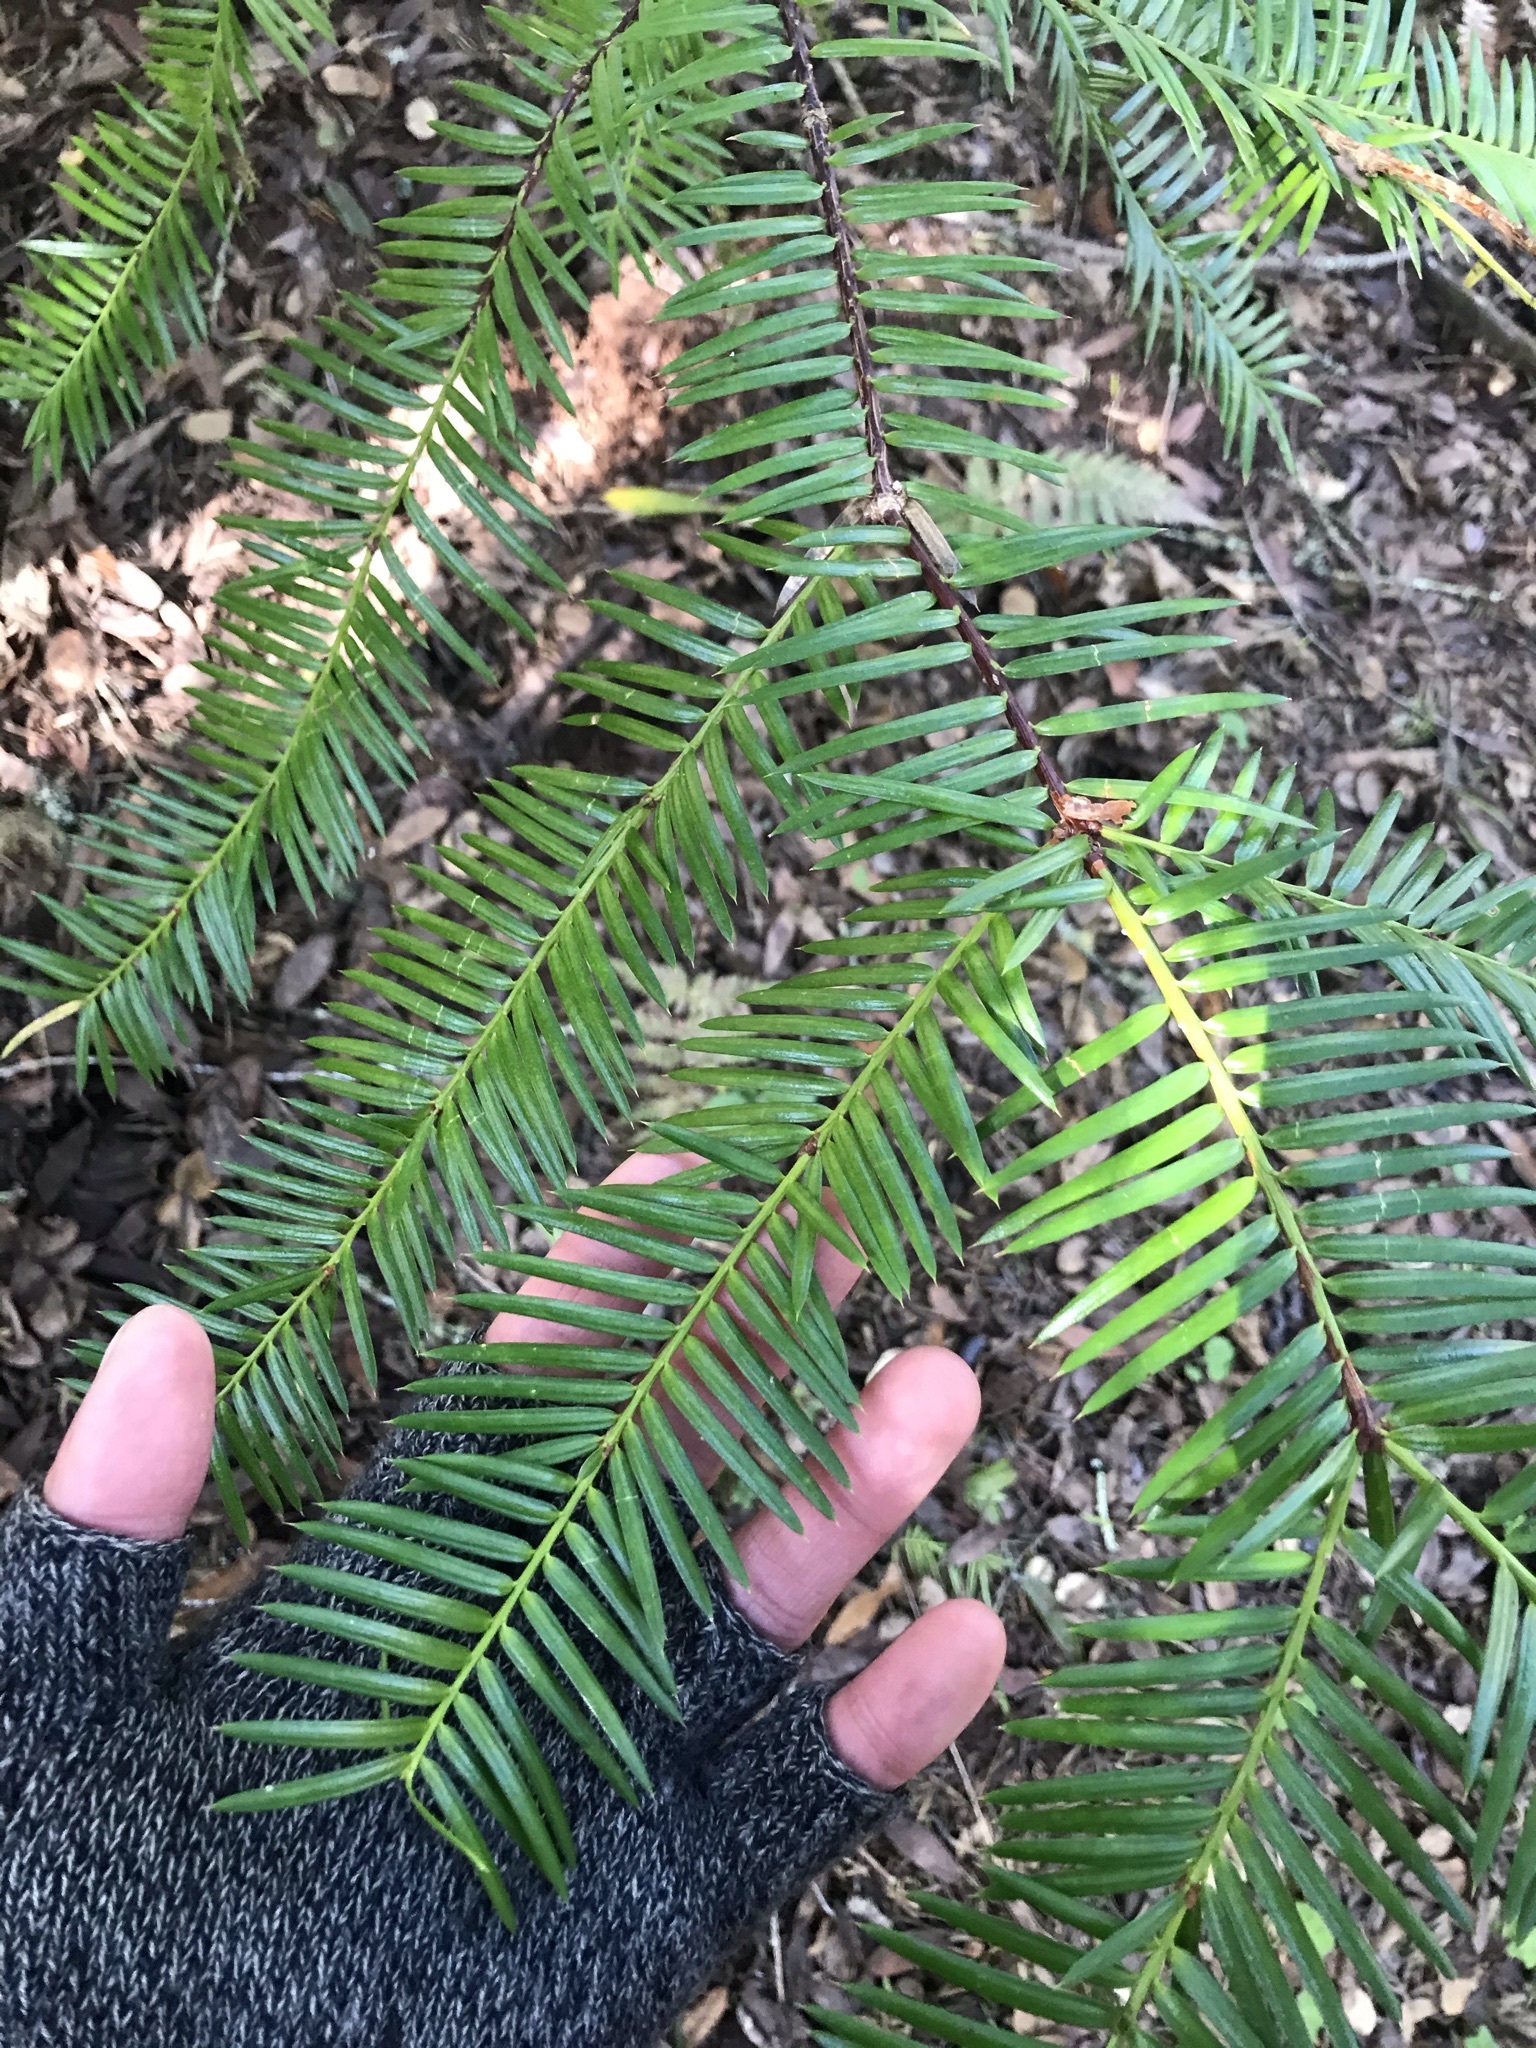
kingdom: Plantae
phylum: Tracheophyta
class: Pinopsida
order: Pinales
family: Taxaceae
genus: Torreya
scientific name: Torreya californica
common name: California torreya
